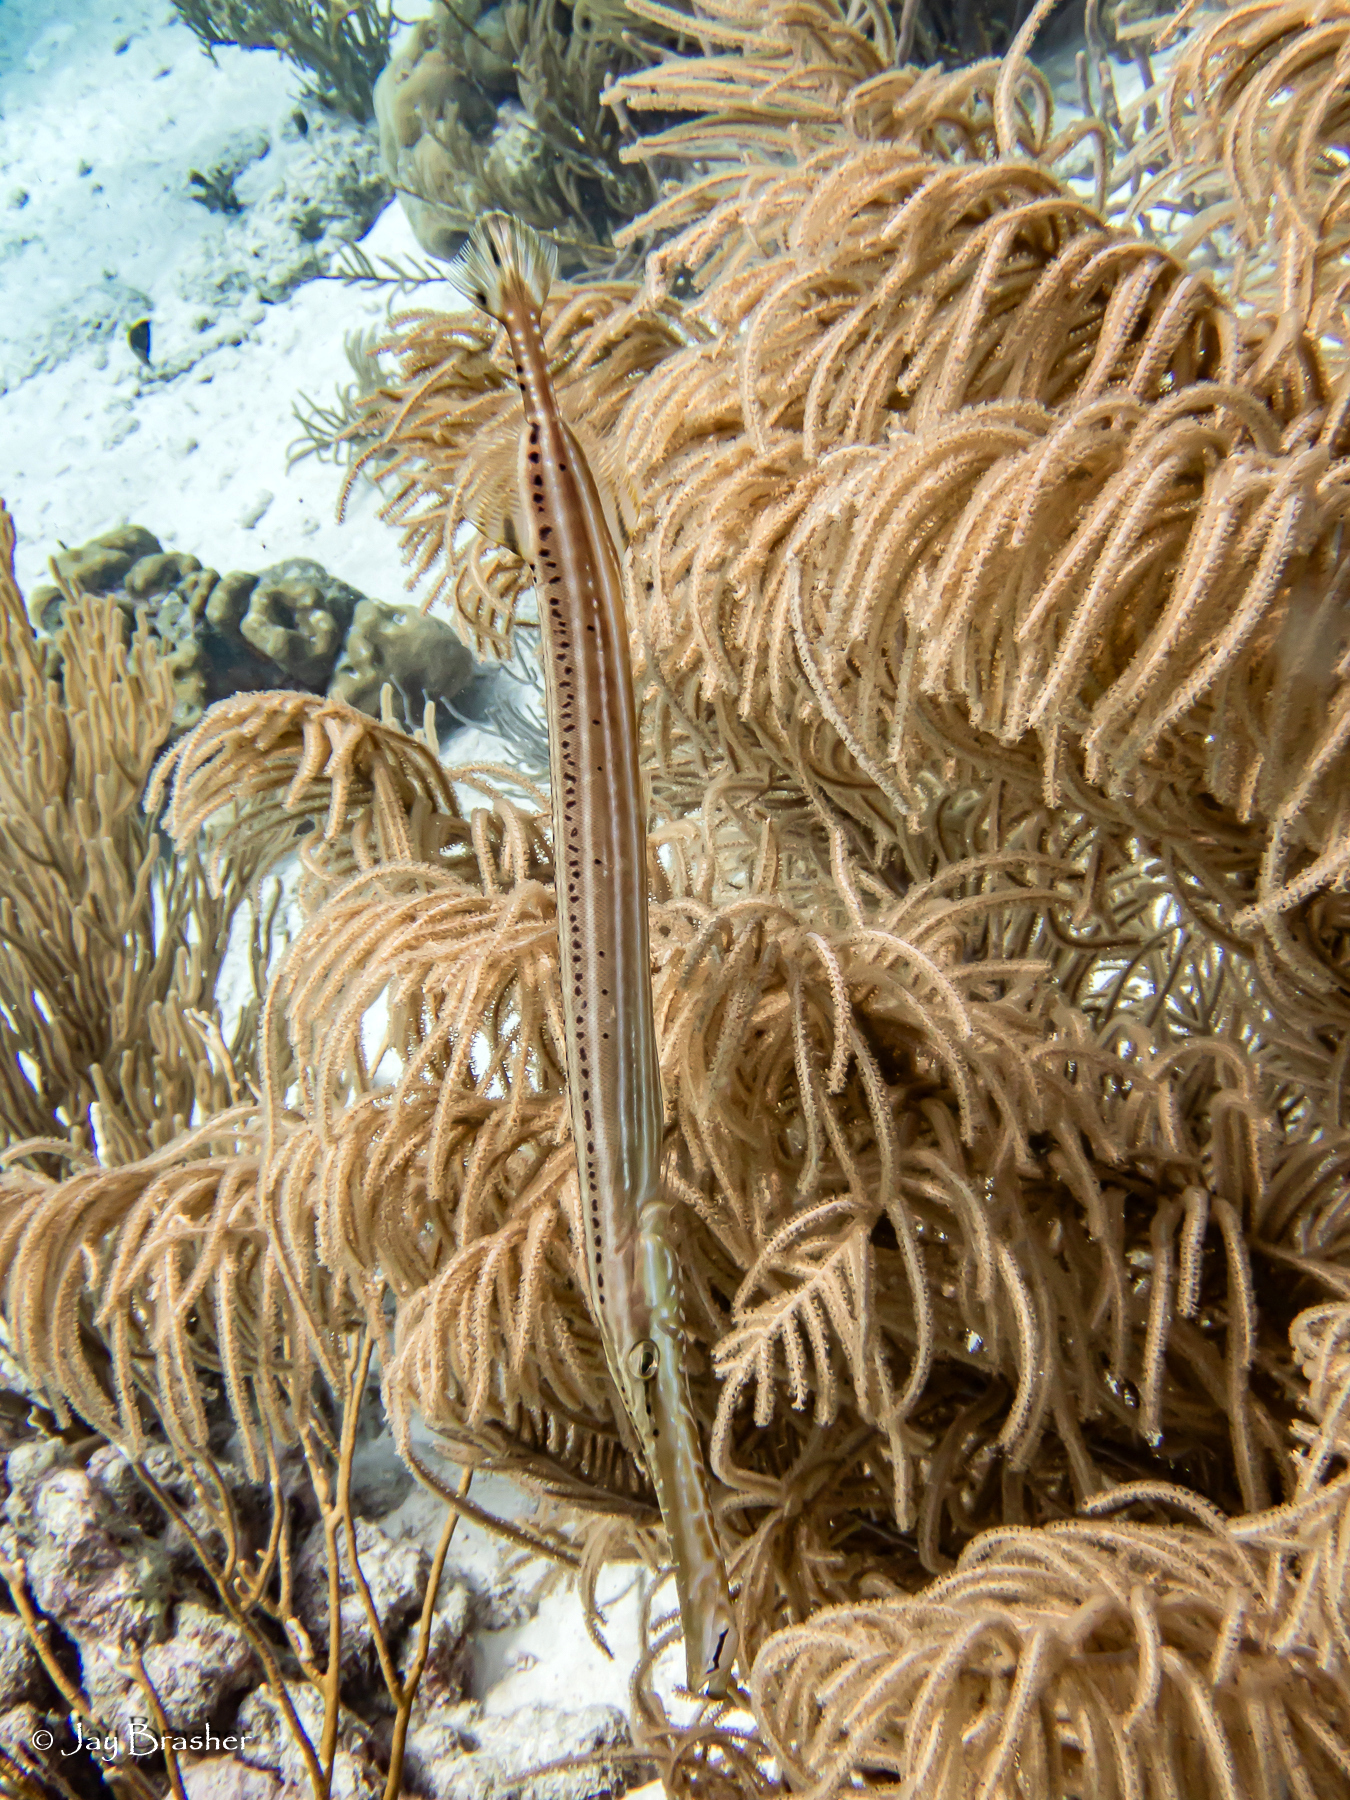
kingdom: Animalia
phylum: Chordata
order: Syngnathiformes
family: Aulostomidae
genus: Aulostomus
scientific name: Aulostomus maculatus
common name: West atlantic trumpetfish
